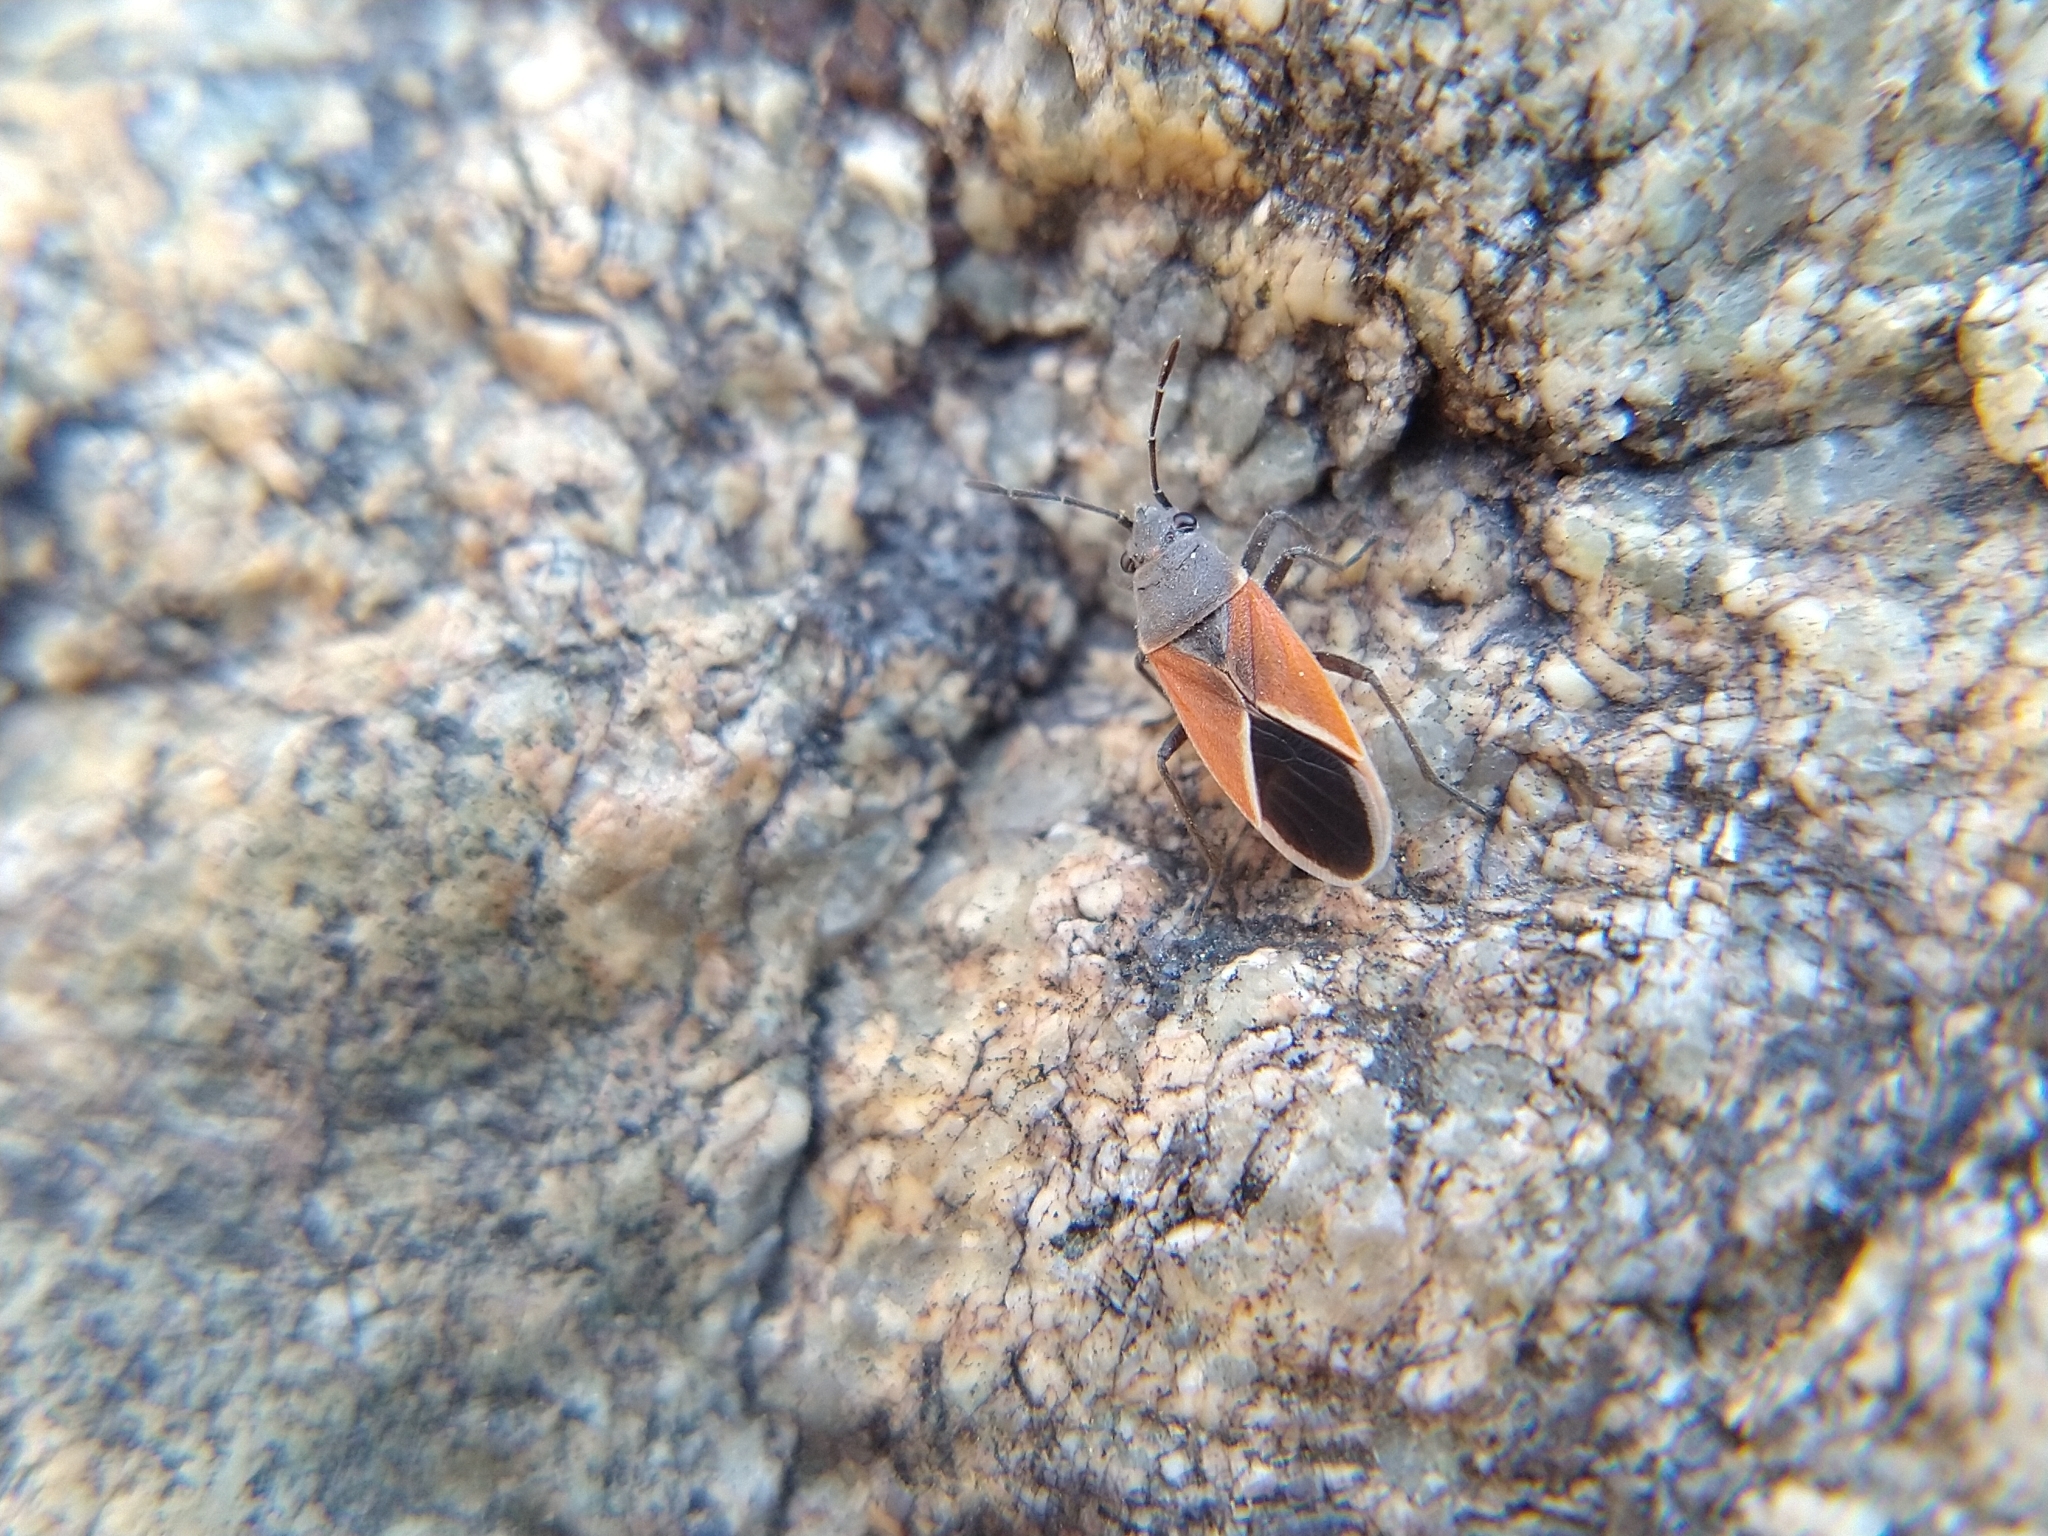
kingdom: Animalia
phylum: Arthropoda
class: Insecta
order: Hemiptera
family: Lygaeidae
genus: Melanopleurus
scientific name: Melanopleurus pyrrhopterus
